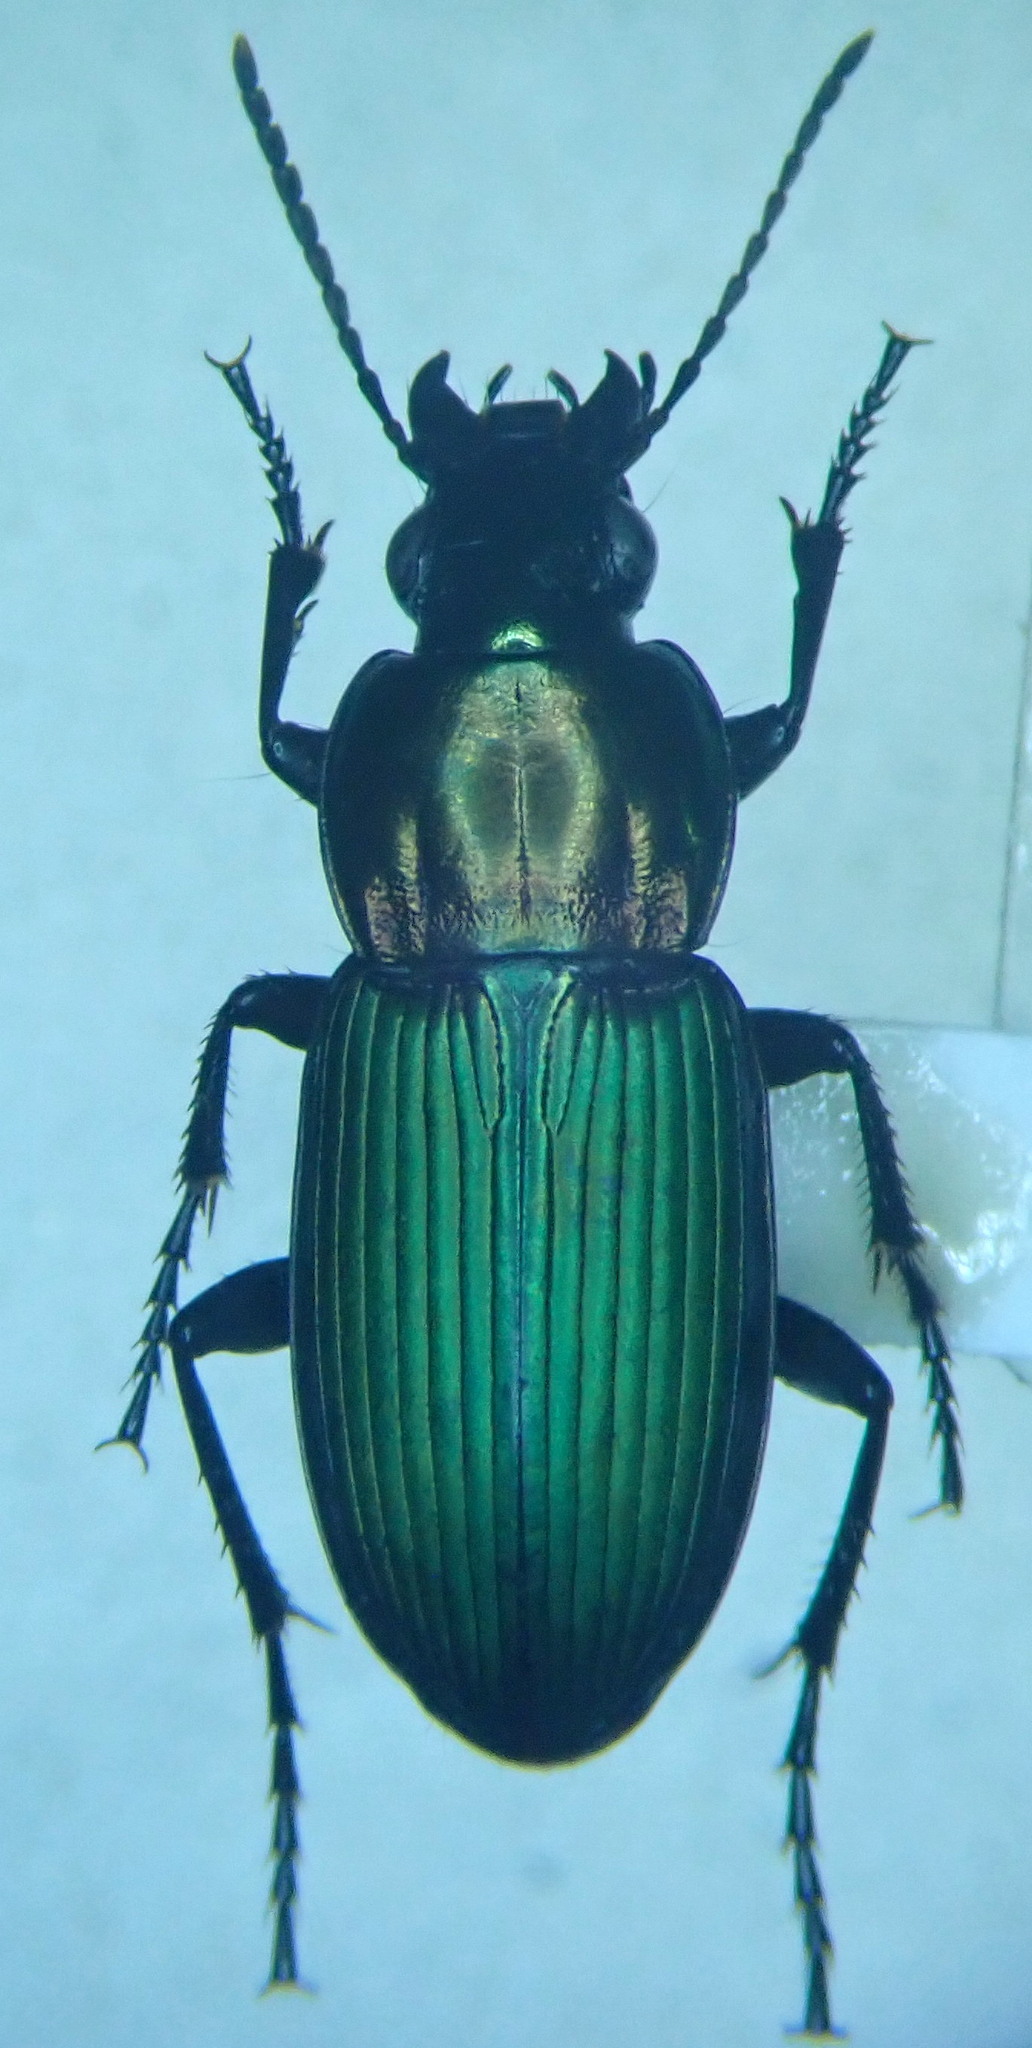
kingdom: Animalia
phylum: Arthropoda
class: Insecta
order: Coleoptera
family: Carabidae
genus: Poecilus
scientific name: Poecilus kugelanni
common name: Kugelann's green clock
